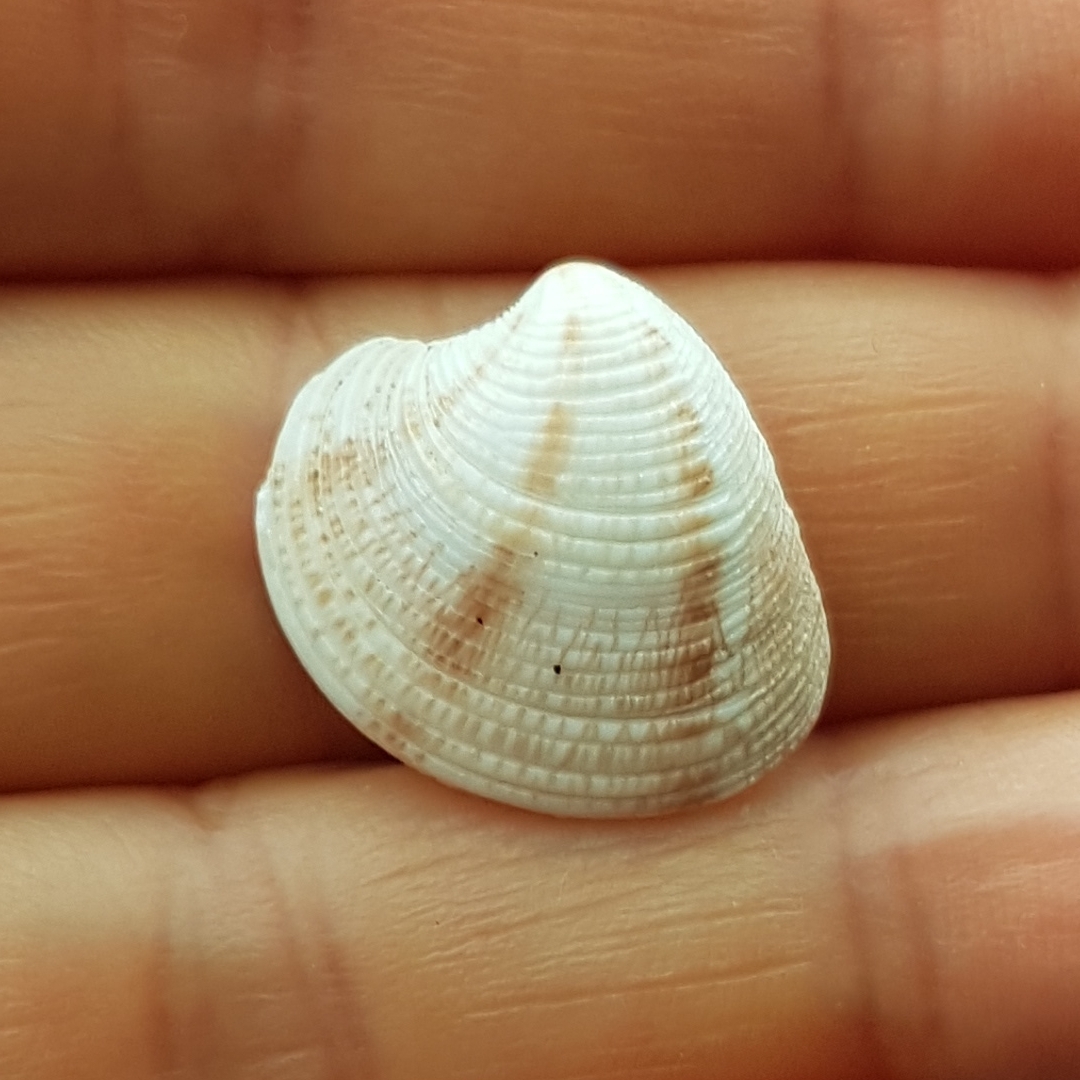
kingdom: Animalia
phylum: Mollusca
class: Bivalvia
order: Venerida
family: Veneridae
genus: Chamelea
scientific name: Chamelea gallina
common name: Chicken venus
